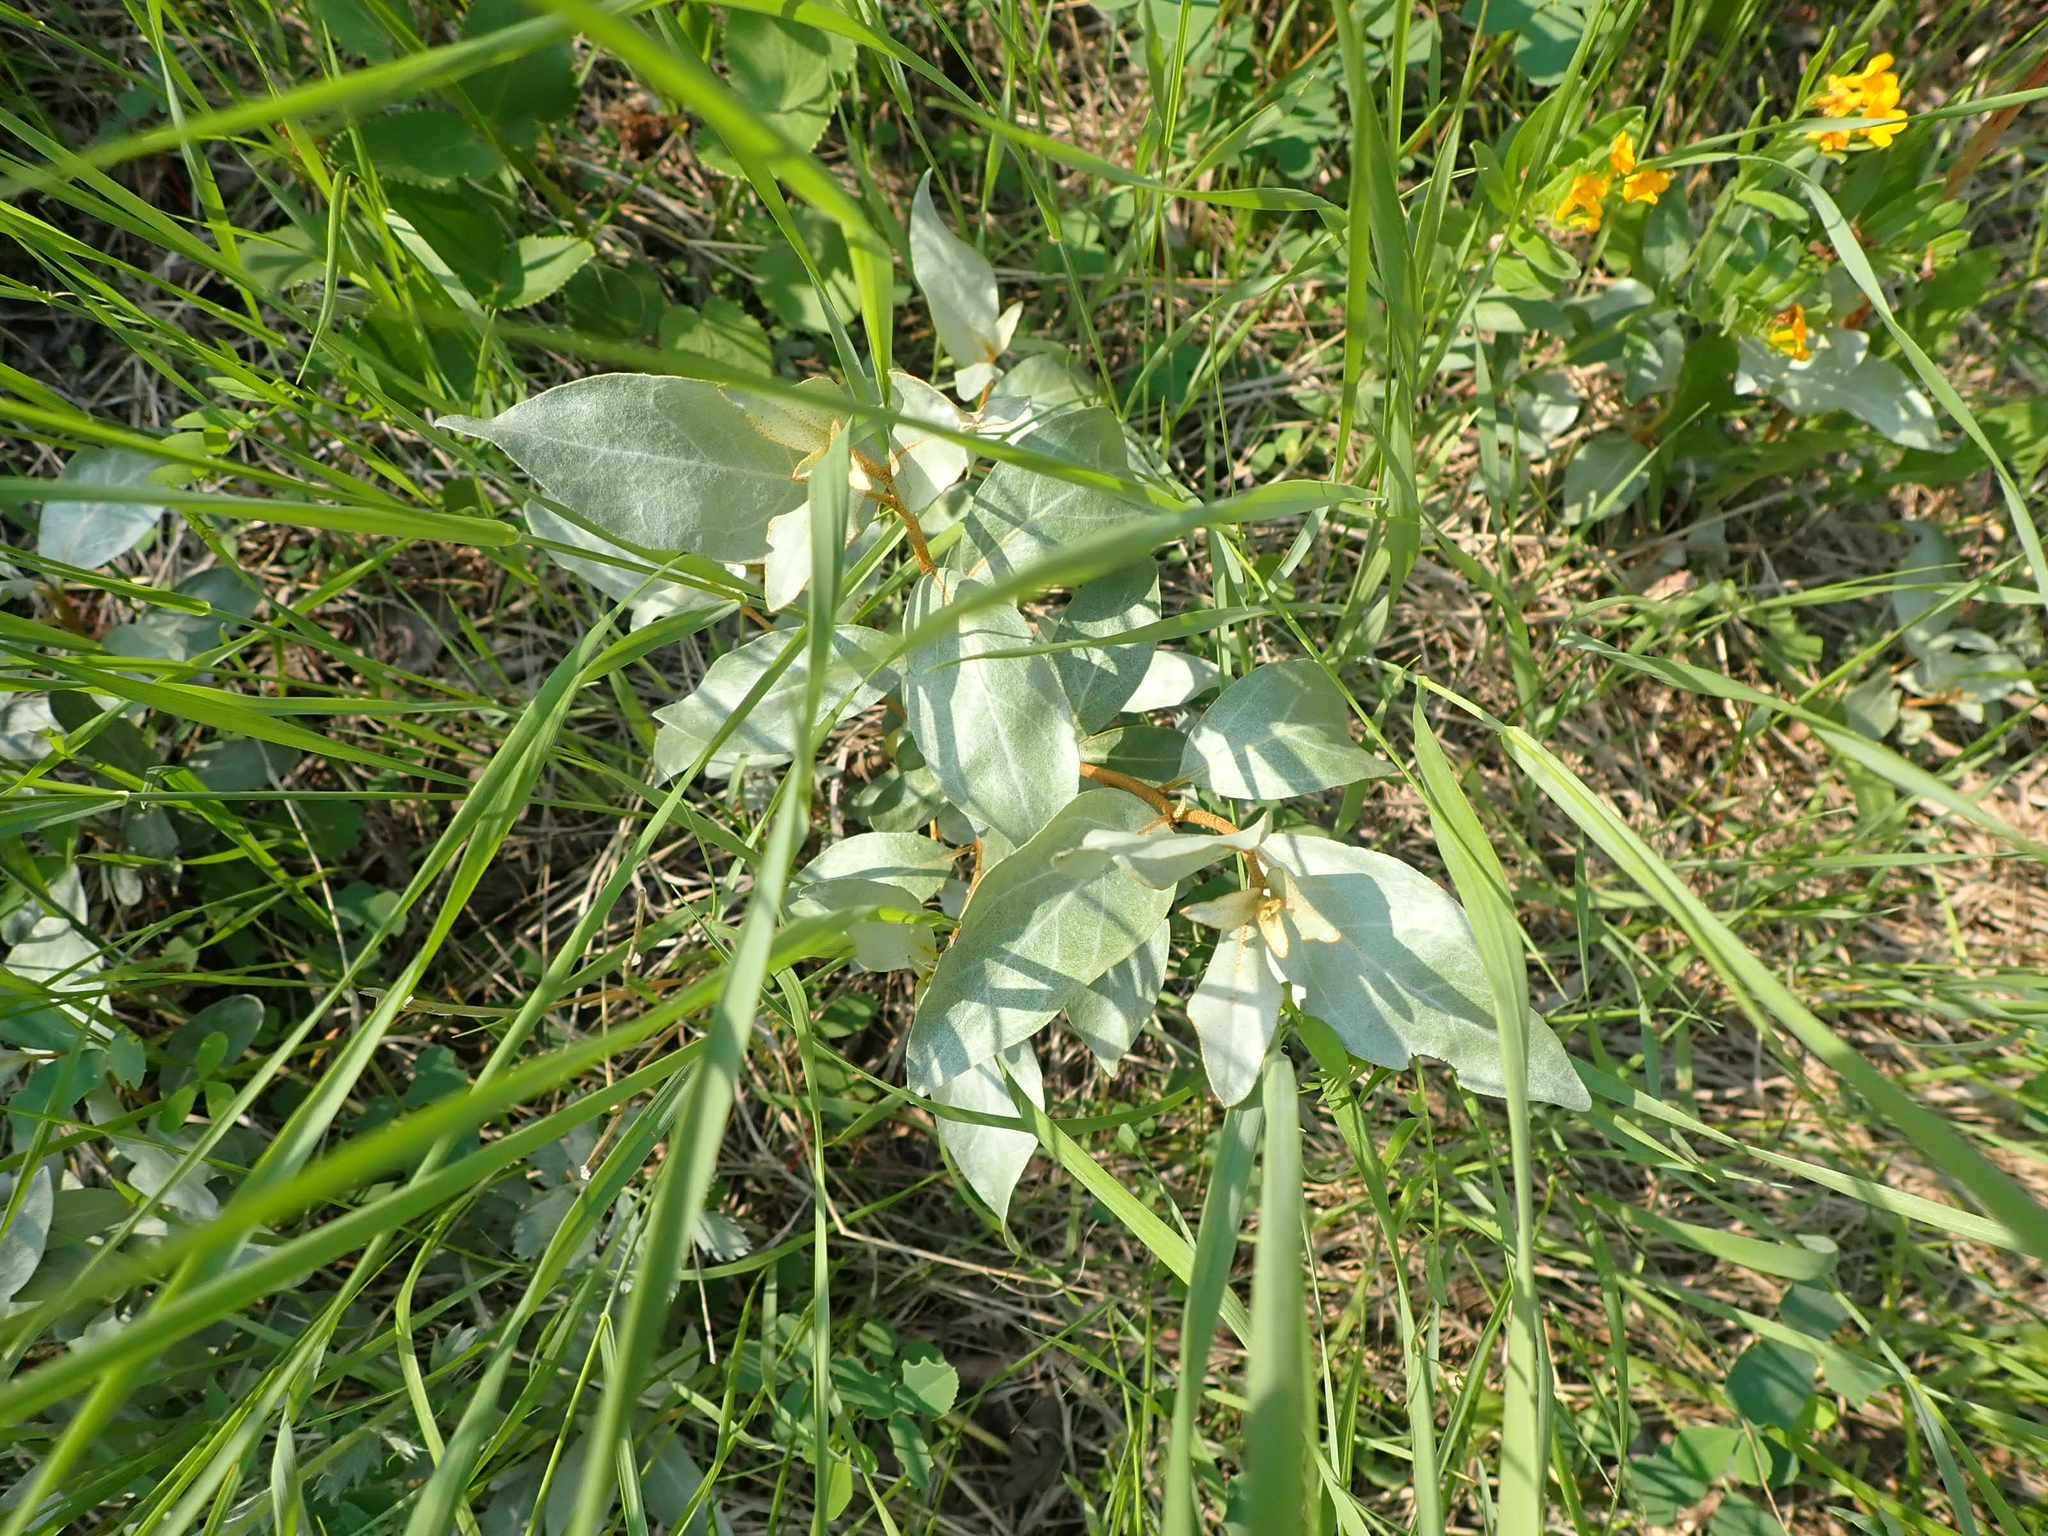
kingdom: Plantae
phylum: Tracheophyta
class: Magnoliopsida
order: Rosales
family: Elaeagnaceae
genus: Elaeagnus
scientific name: Elaeagnus commutata
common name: Silverberry
